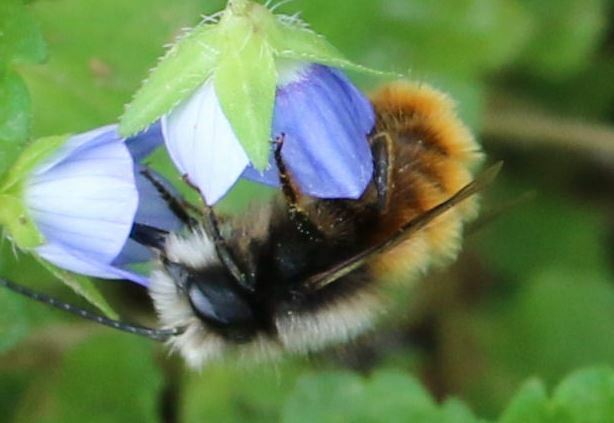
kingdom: Animalia
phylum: Arthropoda
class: Insecta
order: Hymenoptera
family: Megachilidae
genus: Osmia
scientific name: Osmia cornuta
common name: Mason bee
